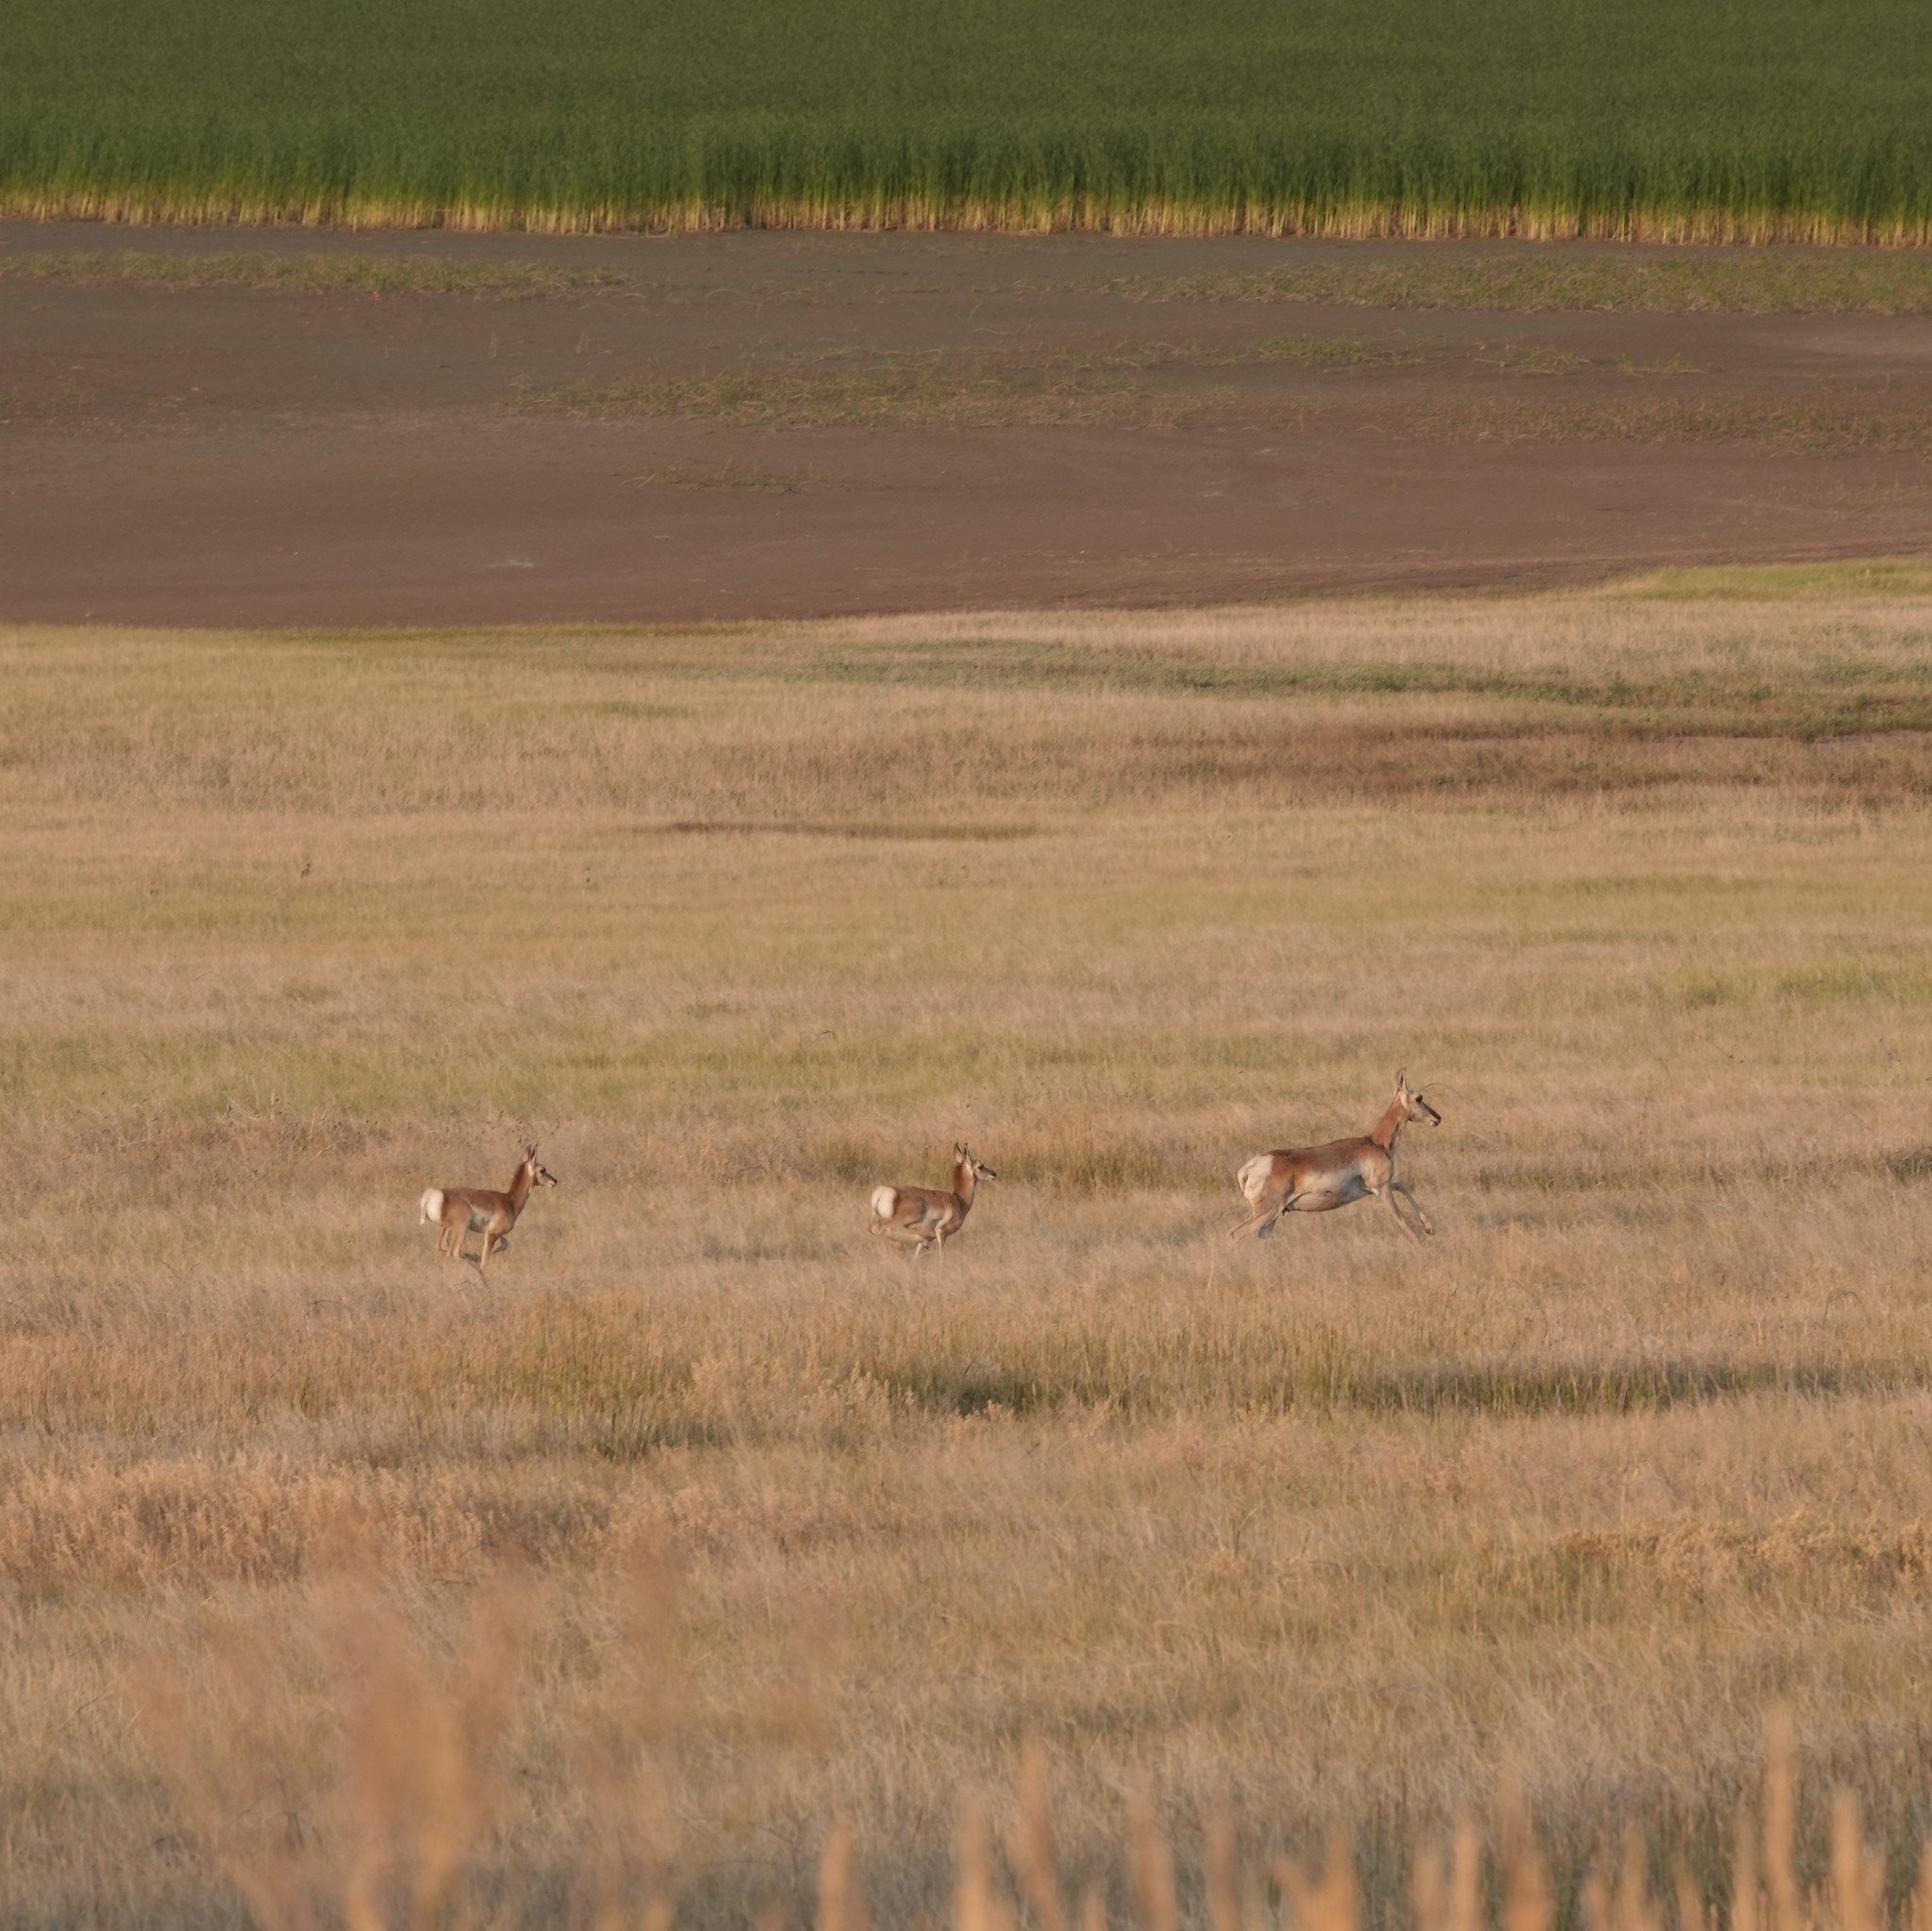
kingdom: Animalia
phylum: Chordata
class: Mammalia
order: Artiodactyla
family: Antilocapridae
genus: Antilocapra
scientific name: Antilocapra americana
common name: Pronghorn
